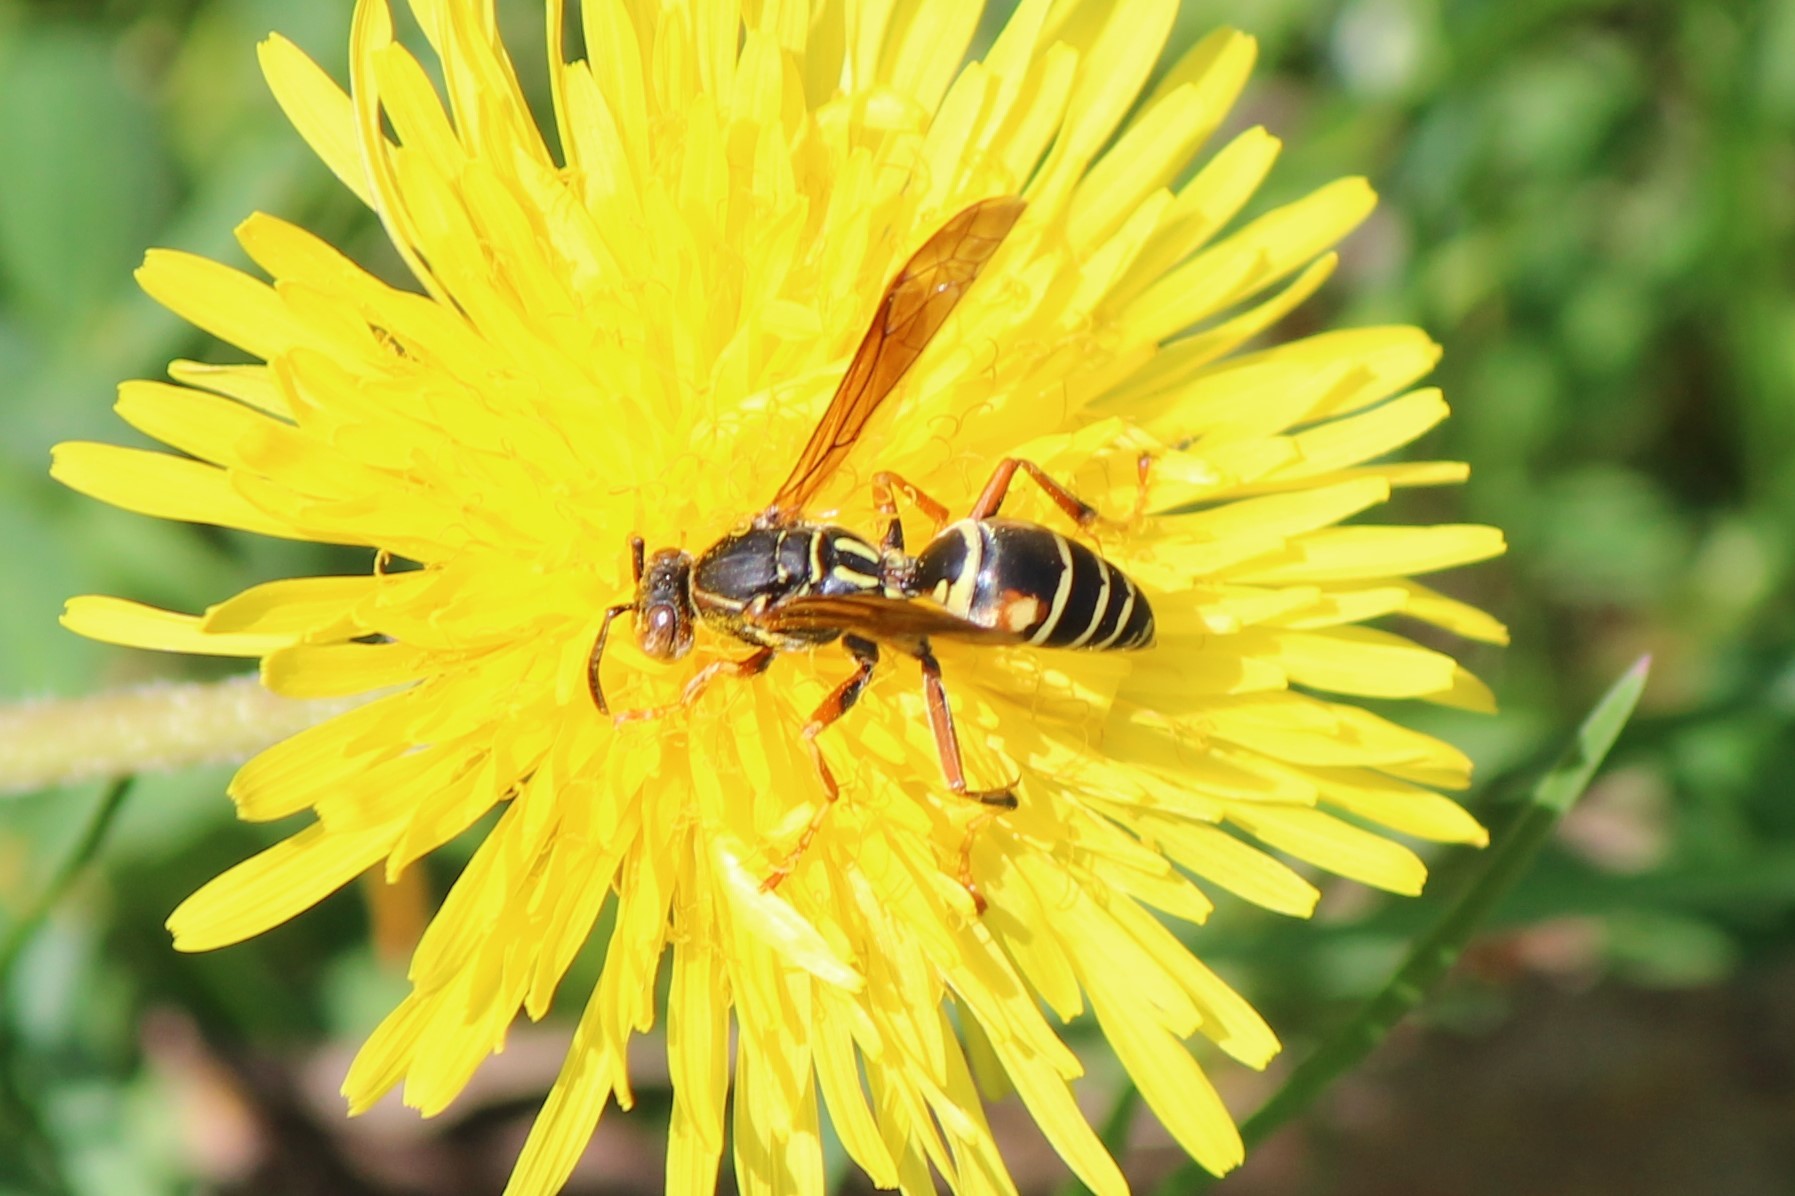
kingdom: Animalia
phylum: Arthropoda
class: Insecta
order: Hymenoptera
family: Eumenidae
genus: Polistes
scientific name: Polistes fuscatus
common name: Dark paper wasp
